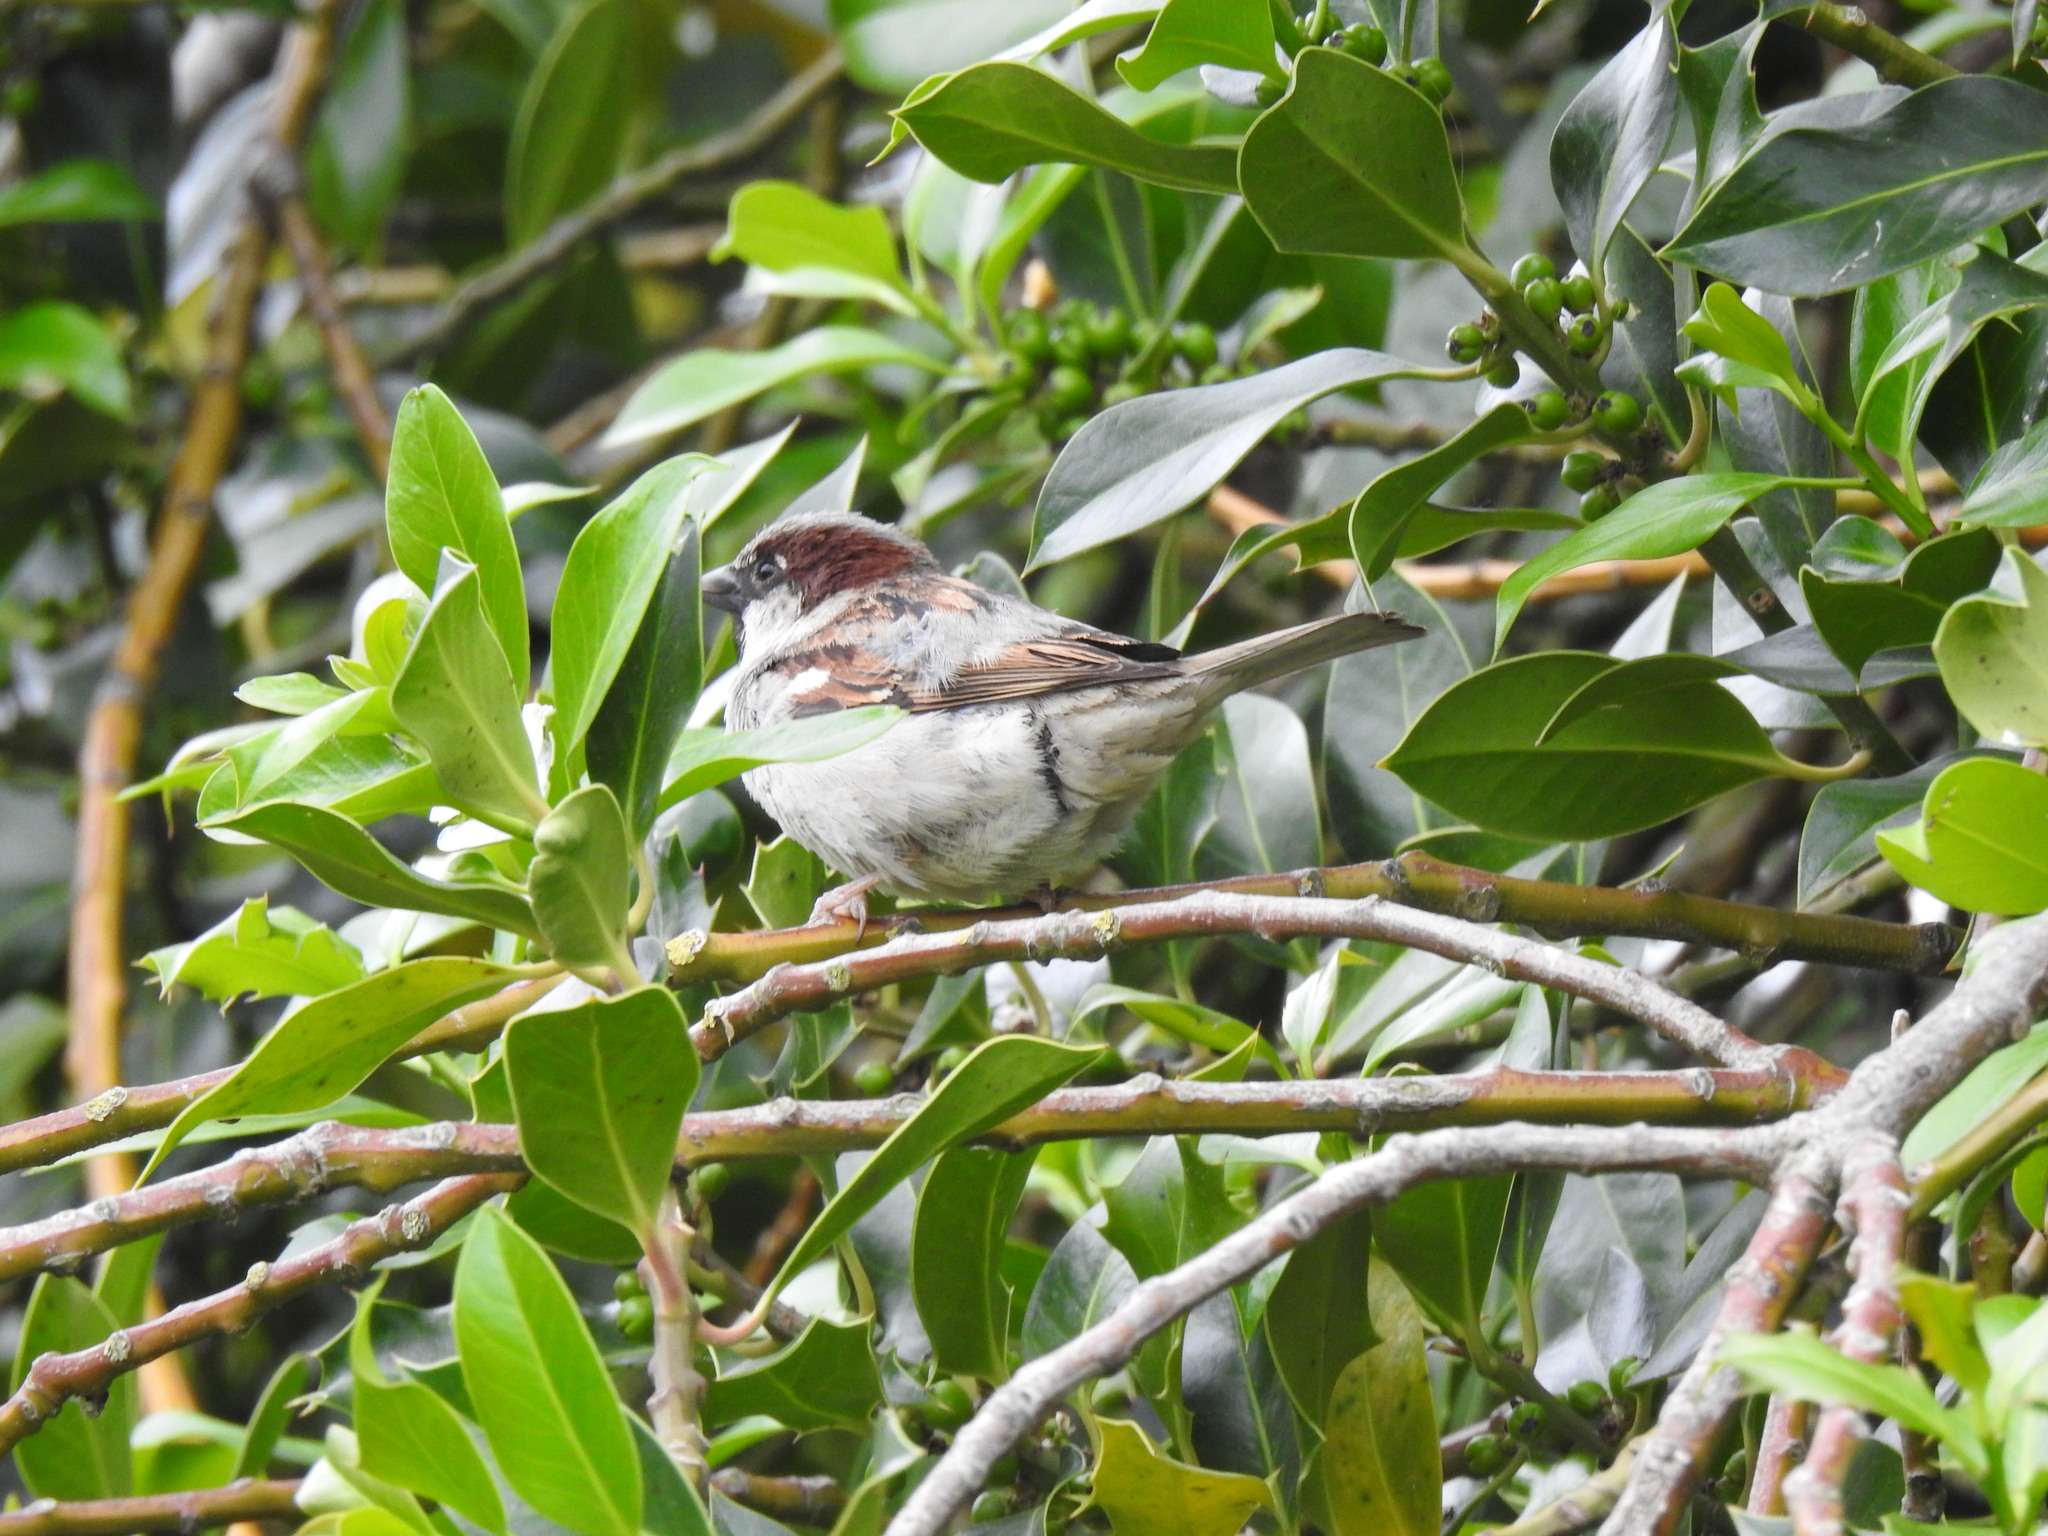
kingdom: Animalia
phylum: Chordata
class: Aves
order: Passeriformes
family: Passeridae
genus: Passer
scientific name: Passer domesticus
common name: House sparrow
